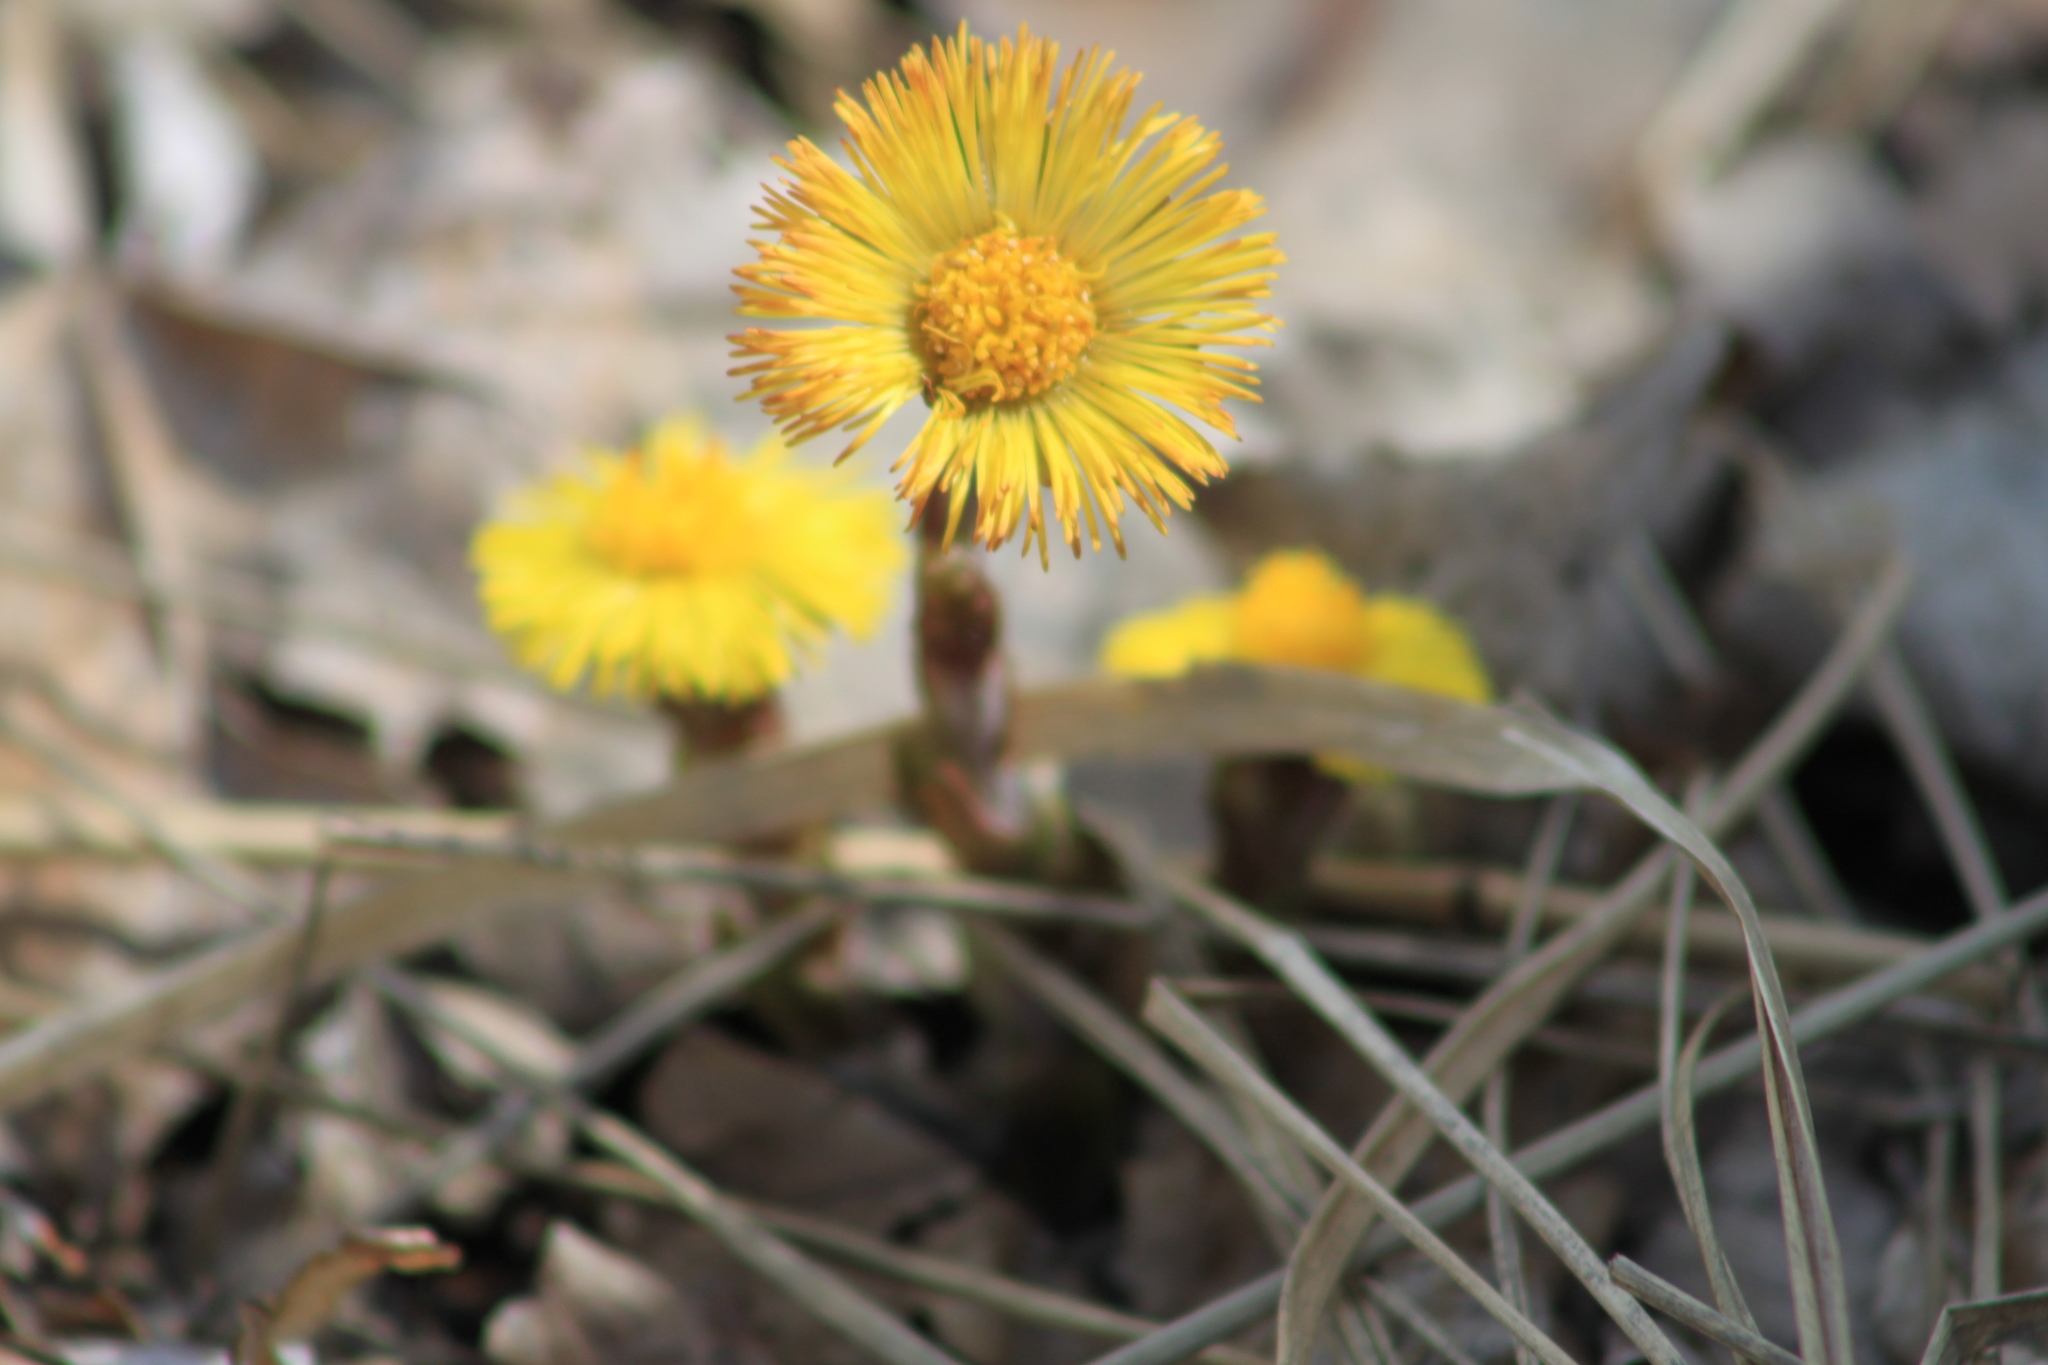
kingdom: Plantae
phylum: Tracheophyta
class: Magnoliopsida
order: Asterales
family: Asteraceae
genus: Tussilago
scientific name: Tussilago farfara
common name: Coltsfoot
